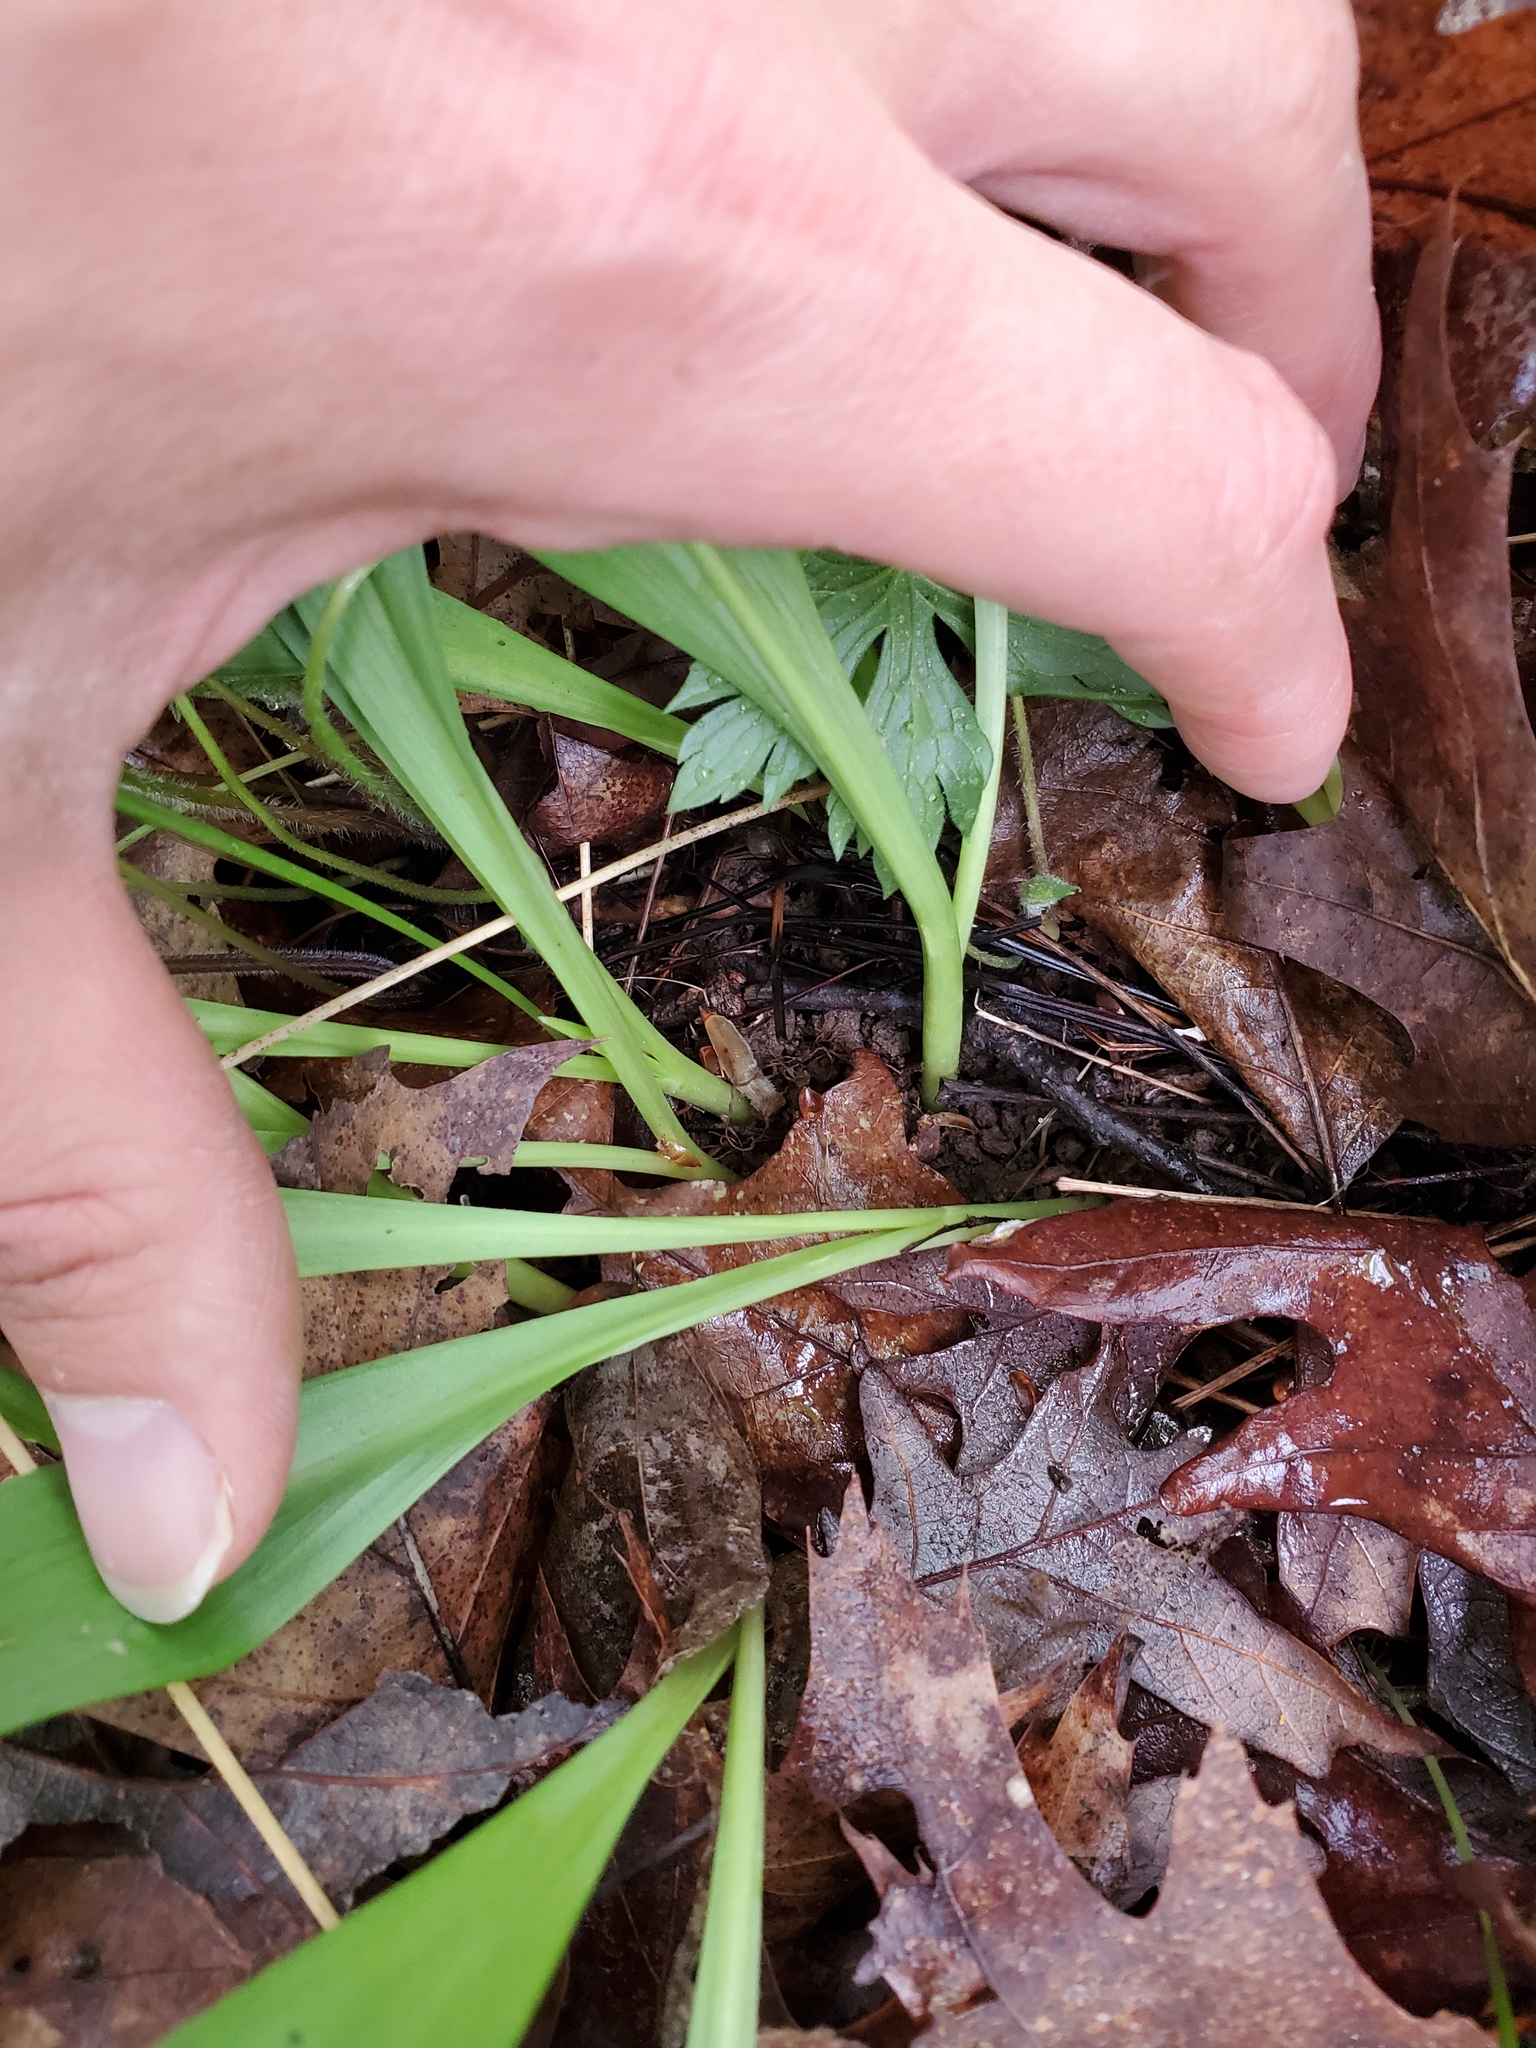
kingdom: Plantae
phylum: Tracheophyta
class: Liliopsida
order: Asparagales
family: Amaryllidaceae
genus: Allium
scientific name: Allium tricoccum
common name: Ramp
